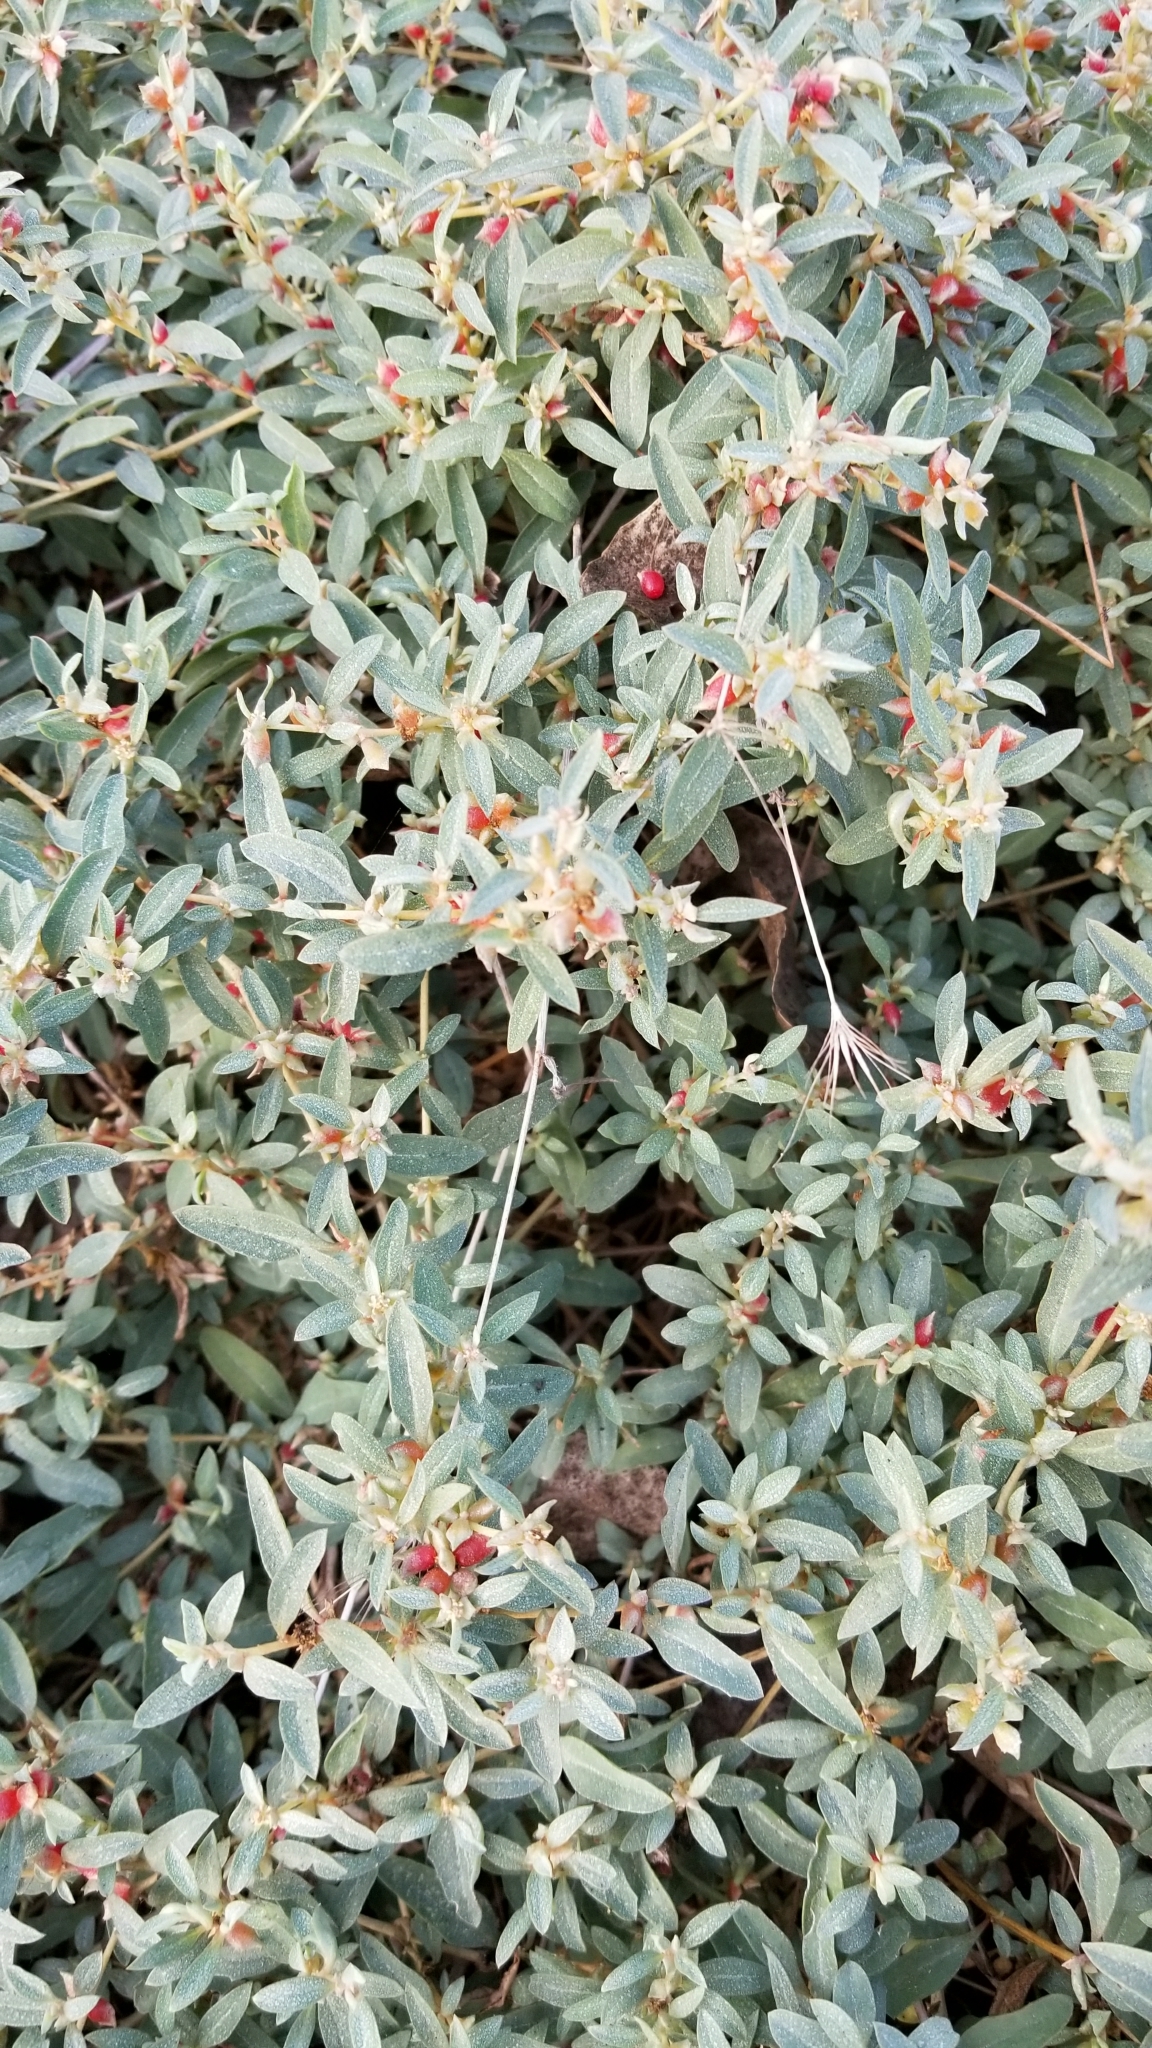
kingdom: Plantae
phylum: Tracheophyta
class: Magnoliopsida
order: Caryophyllales
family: Amaranthaceae
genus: Atriplex
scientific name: Atriplex semibaccata
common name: Australian saltbush
